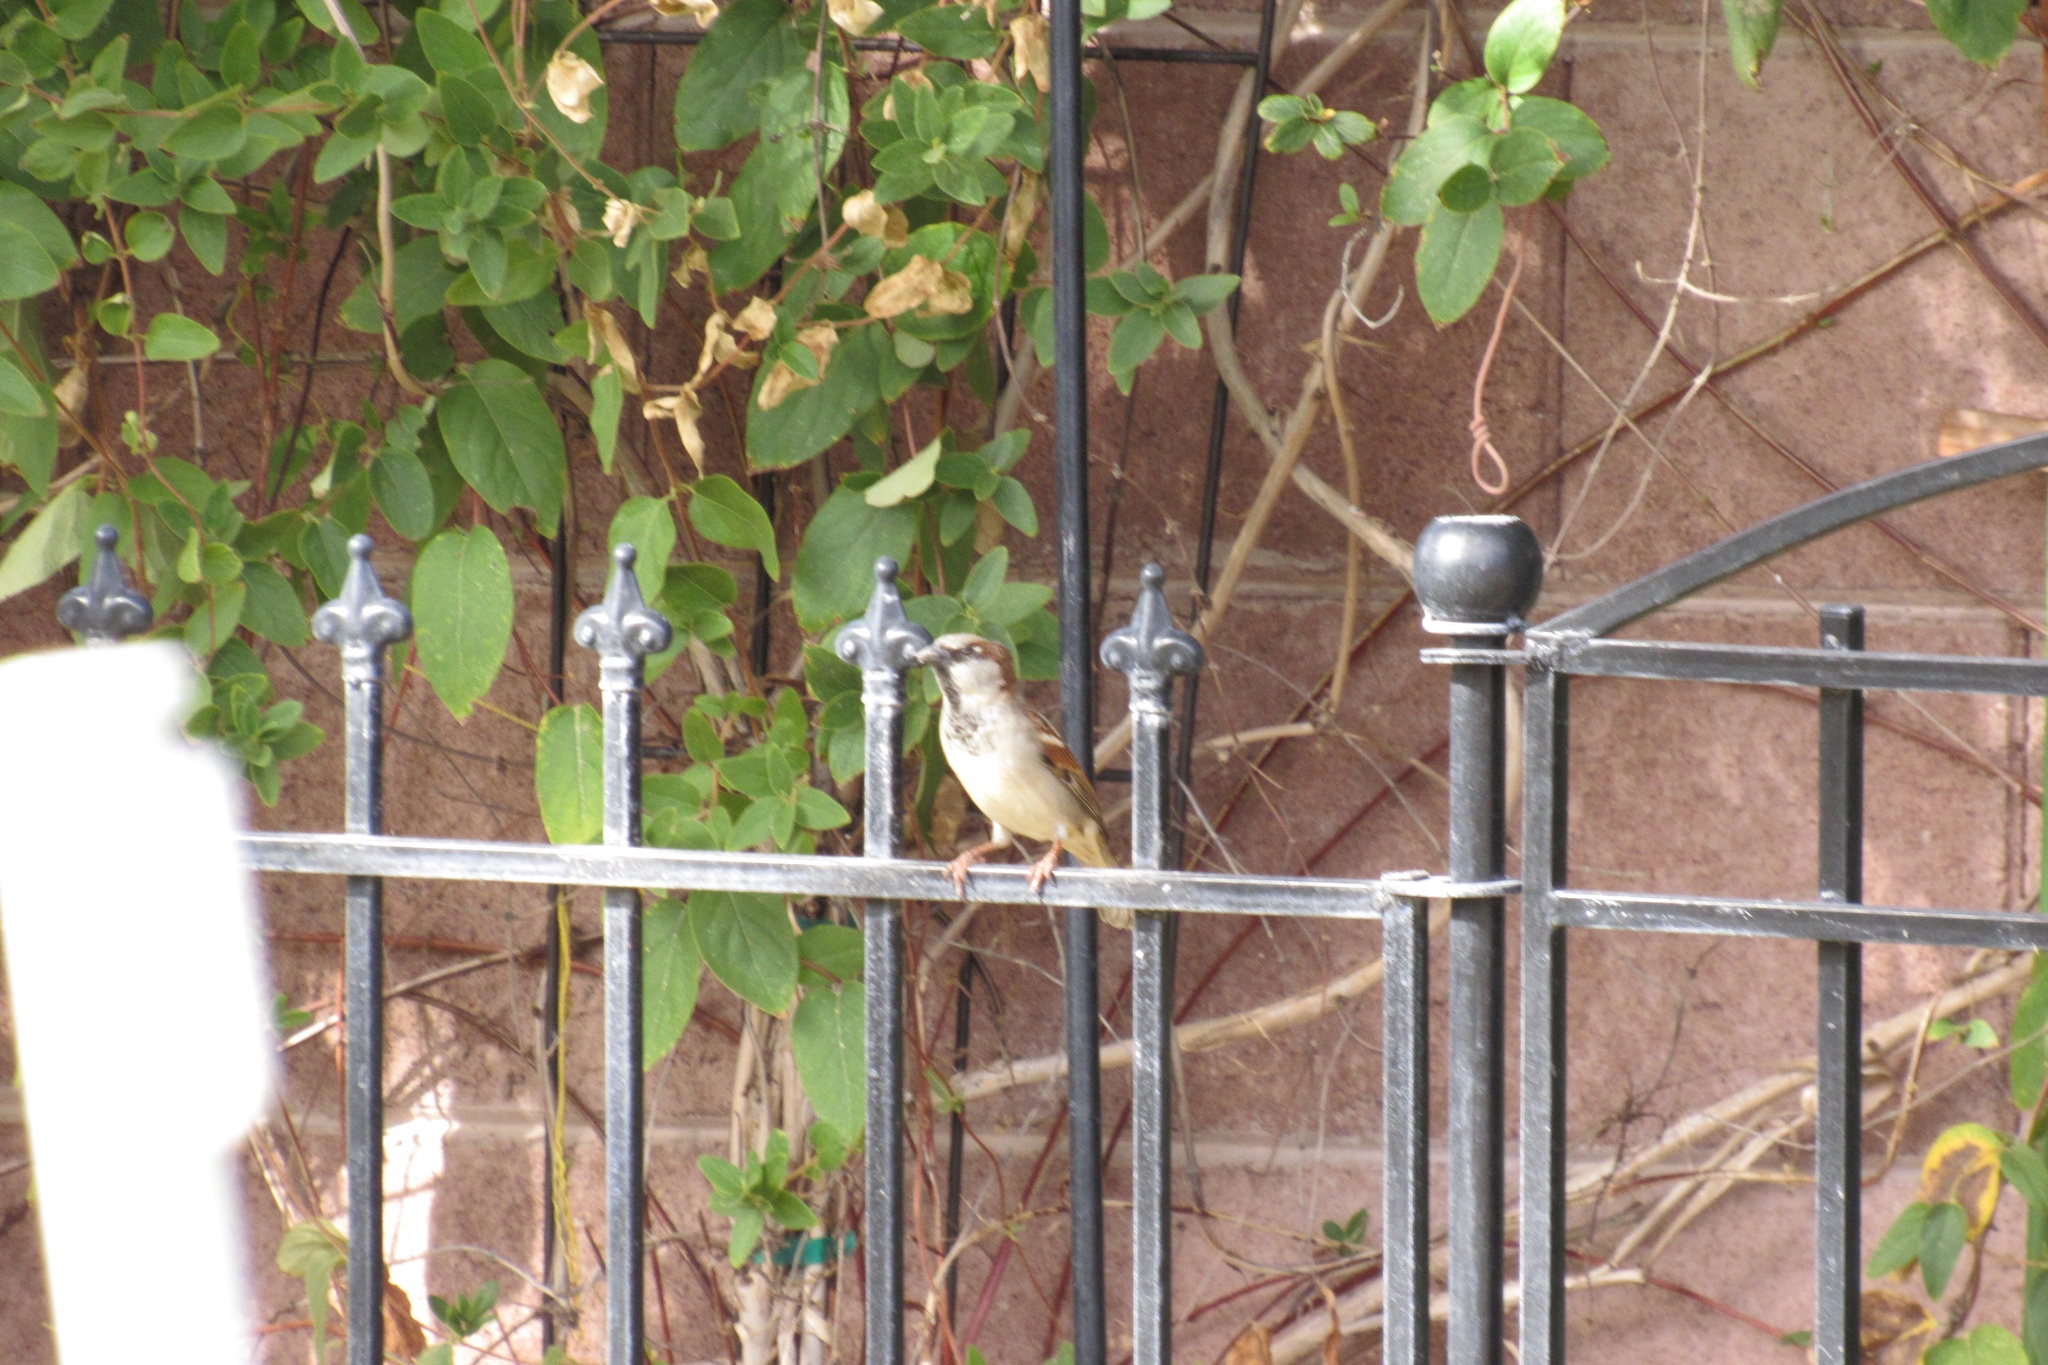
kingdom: Animalia
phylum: Chordata
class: Aves
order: Passeriformes
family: Passeridae
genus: Passer
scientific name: Passer domesticus
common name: House sparrow
